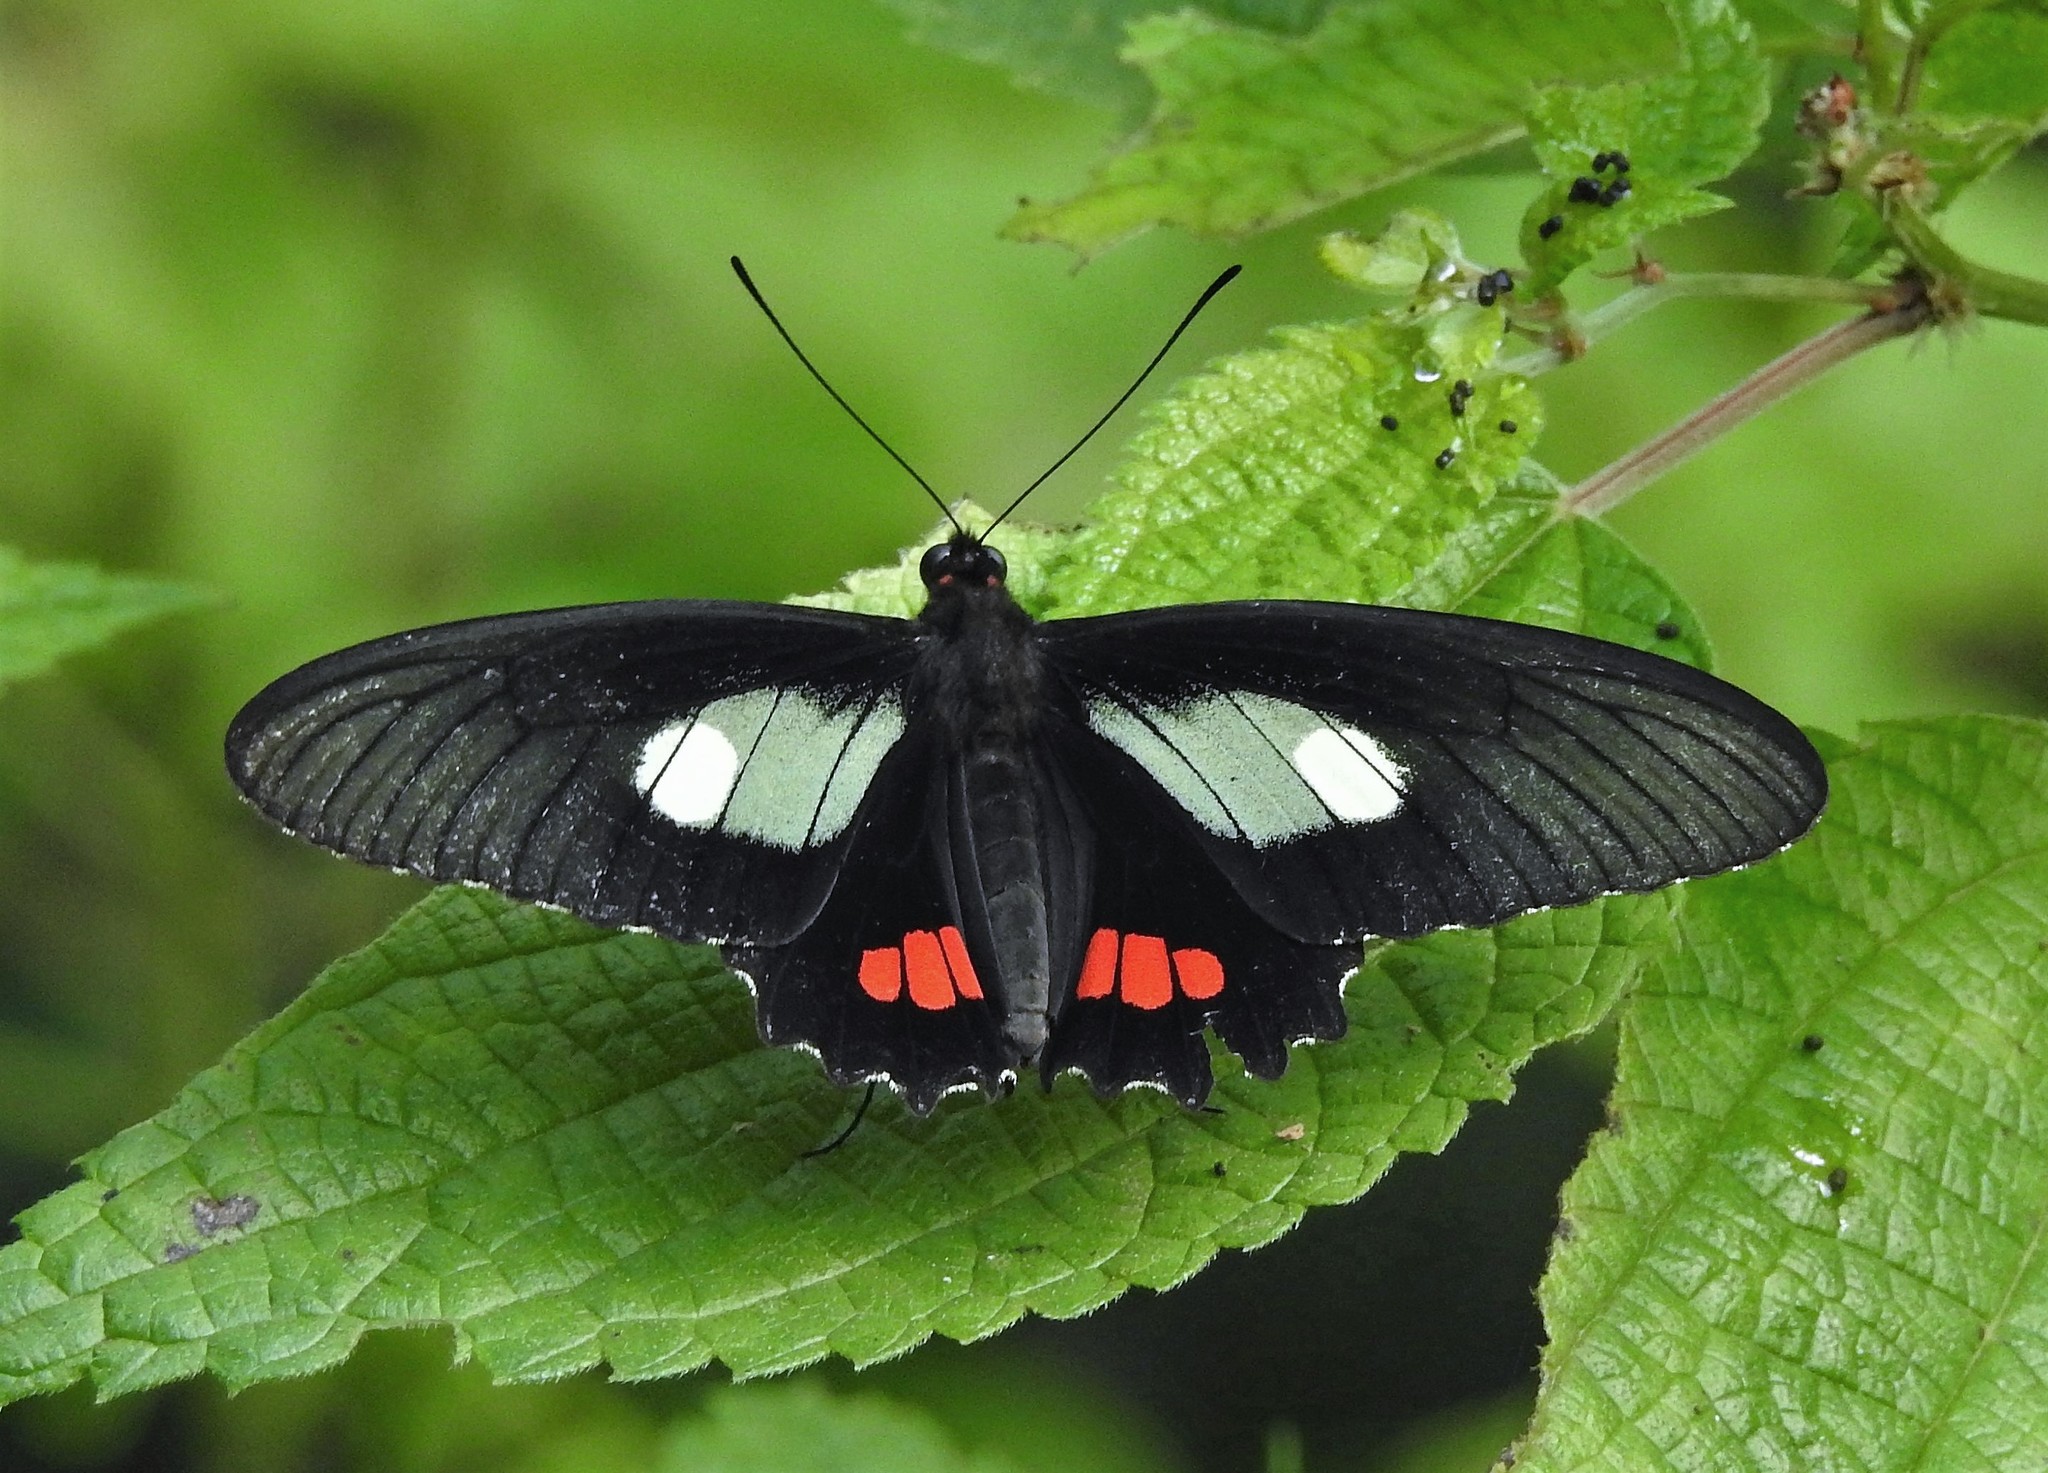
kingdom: Animalia
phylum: Arthropoda
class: Insecta
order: Lepidoptera
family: Papilionidae
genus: Parides
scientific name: Parides erithalion
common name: Variable cattleheart
